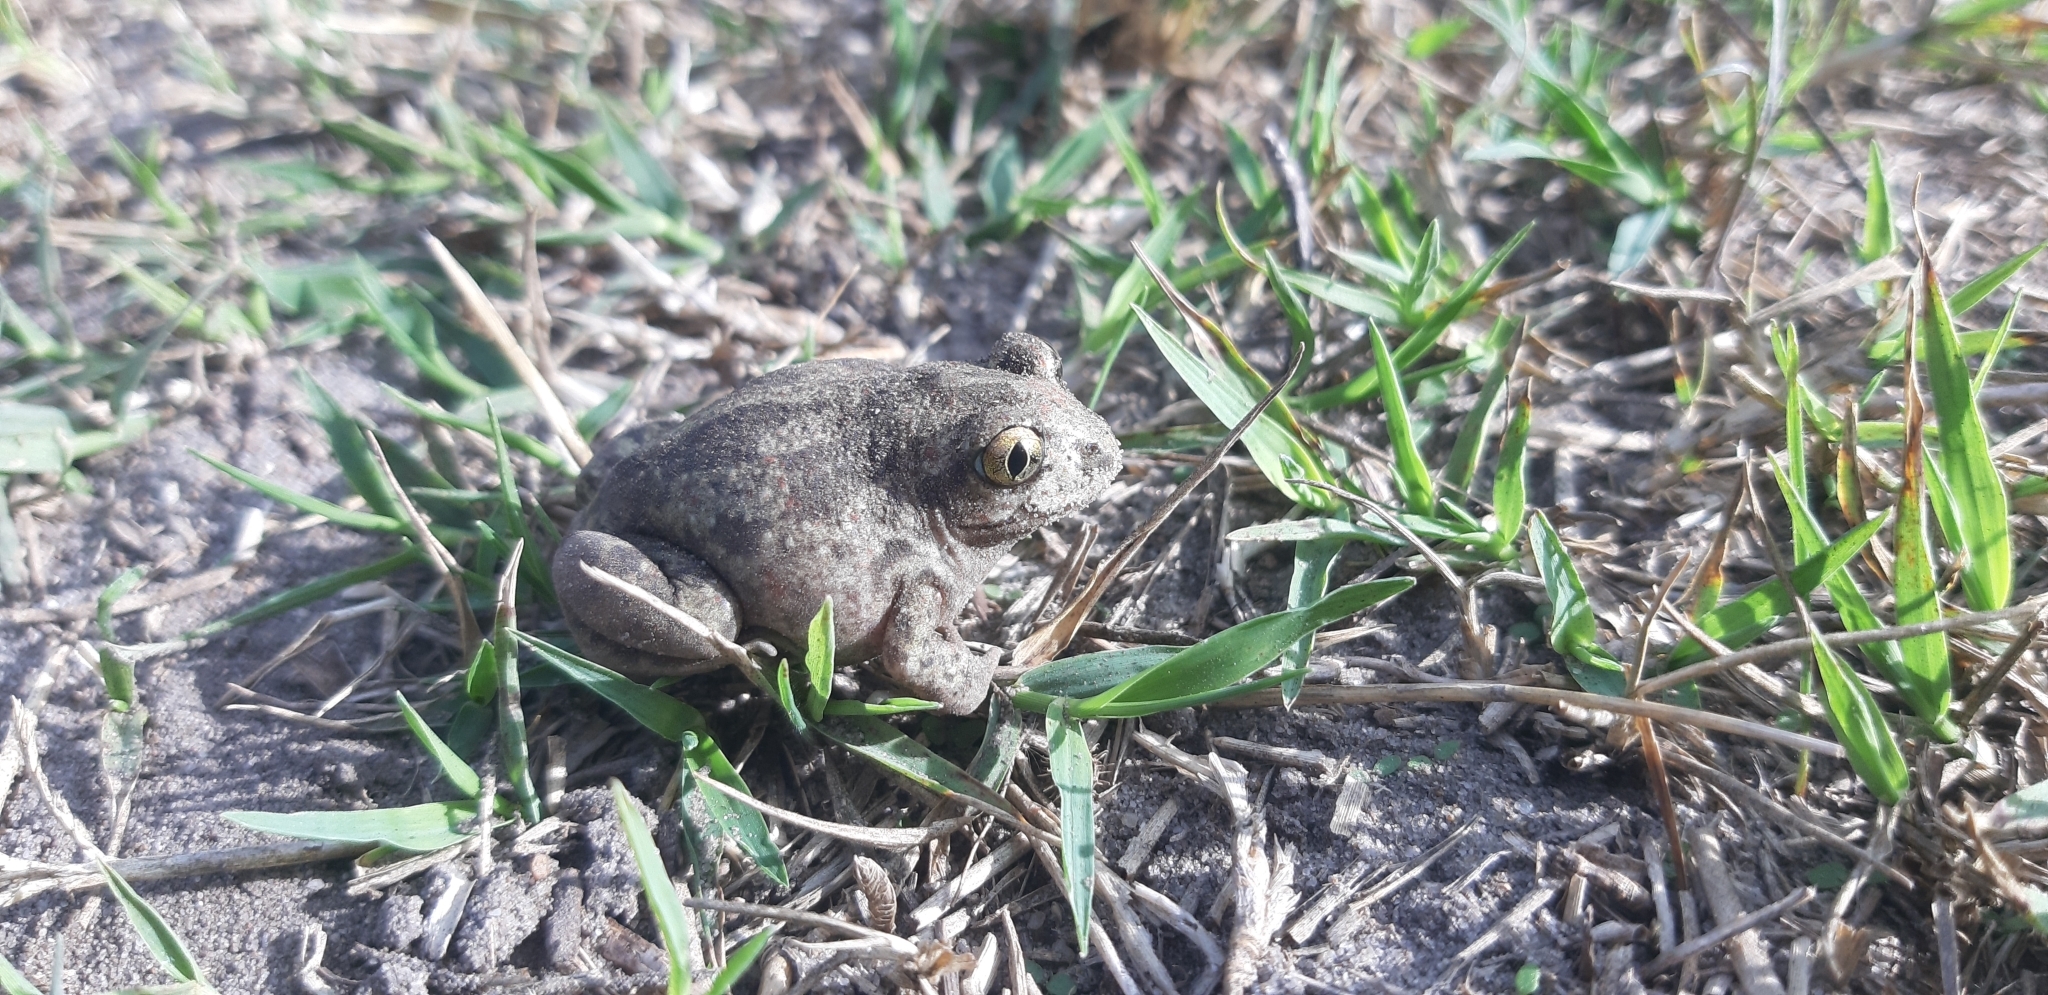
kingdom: Animalia
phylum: Chordata
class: Amphibia
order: Anura
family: Pelobatidae
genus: Pelobates
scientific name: Pelobates fuscus
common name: Common eurasian spadefoot toad
